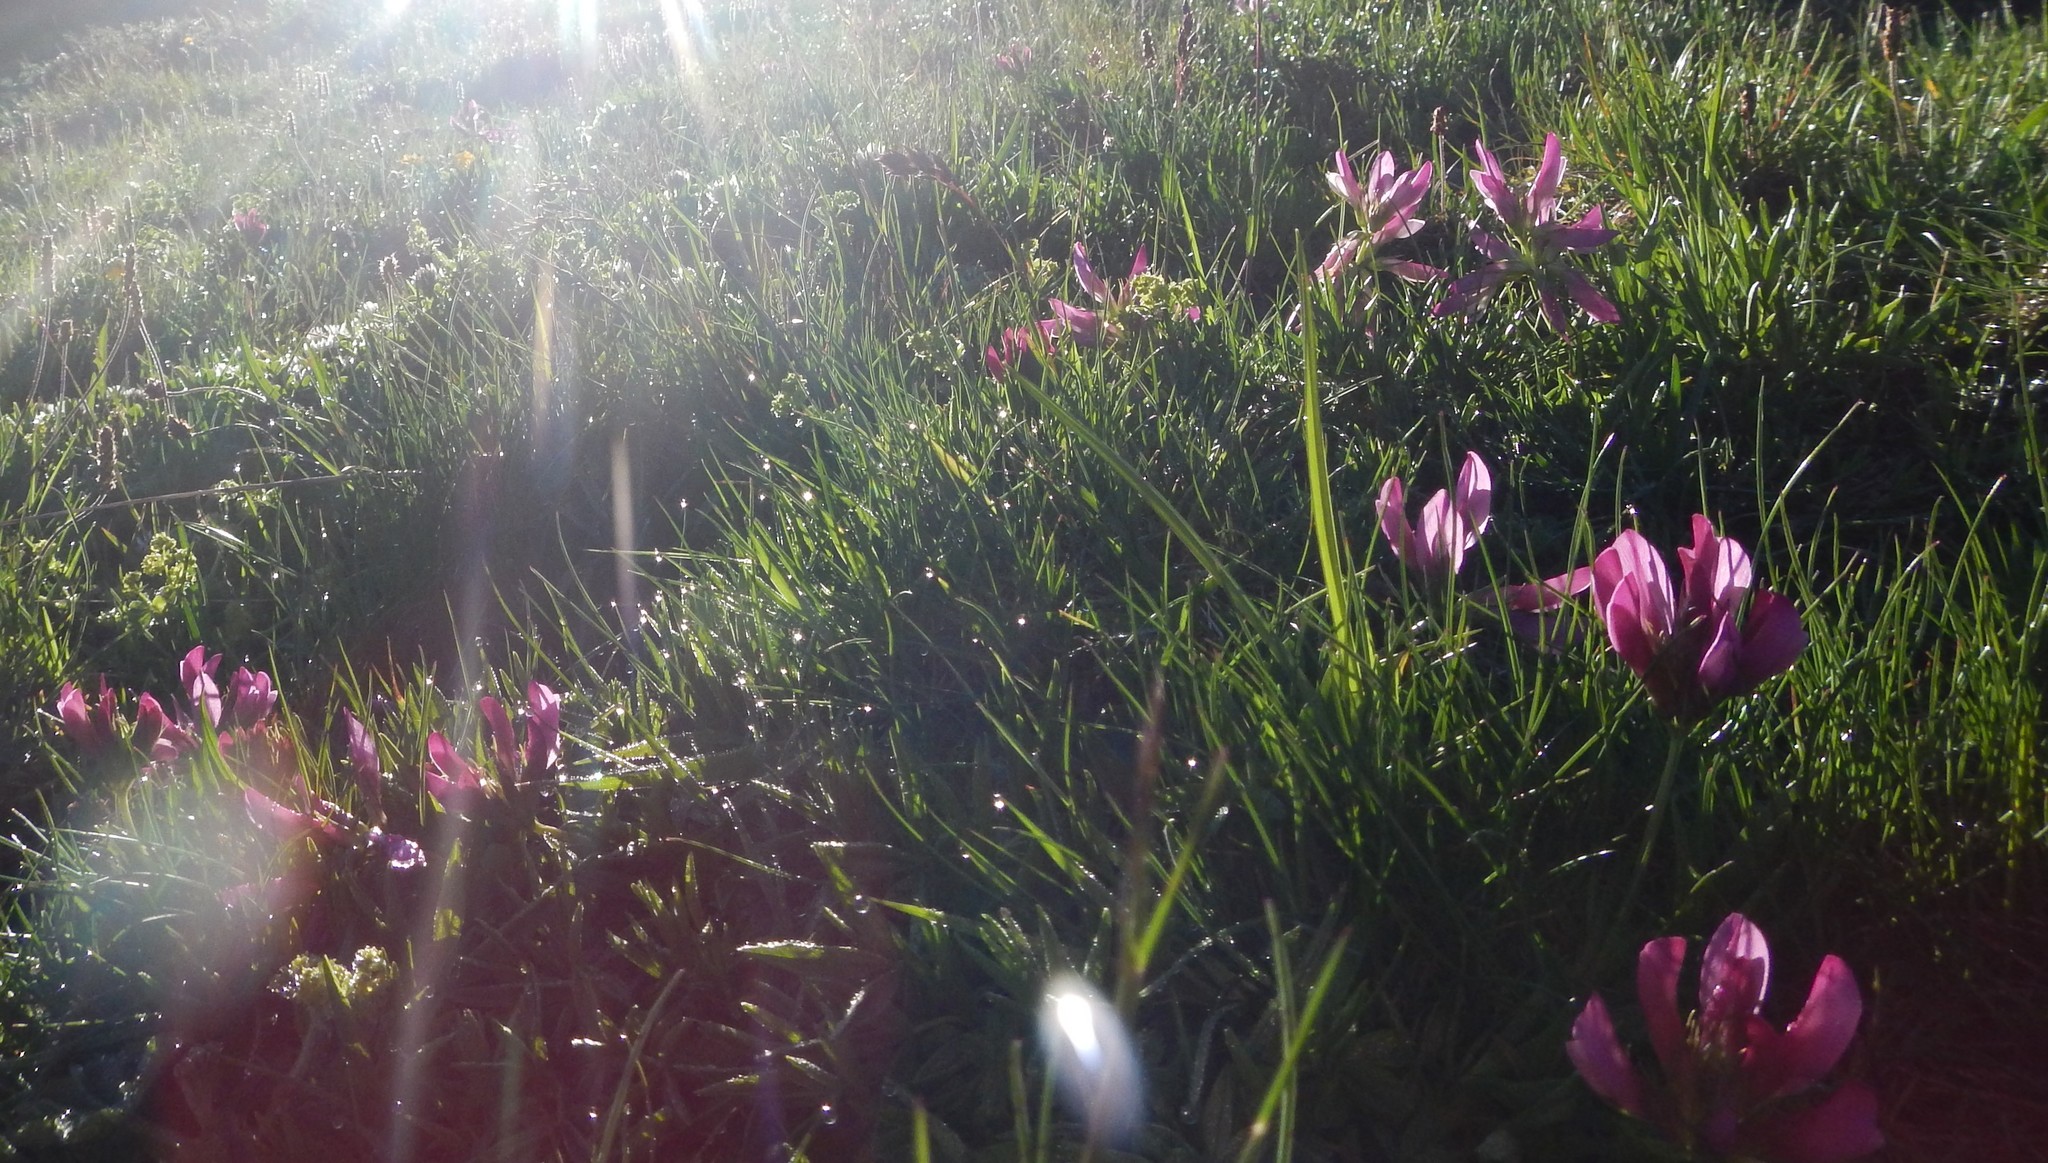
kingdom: Plantae
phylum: Tracheophyta
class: Magnoliopsida
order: Fabales
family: Fabaceae
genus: Trifolium
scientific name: Trifolium alpinum
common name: Alpine clover
